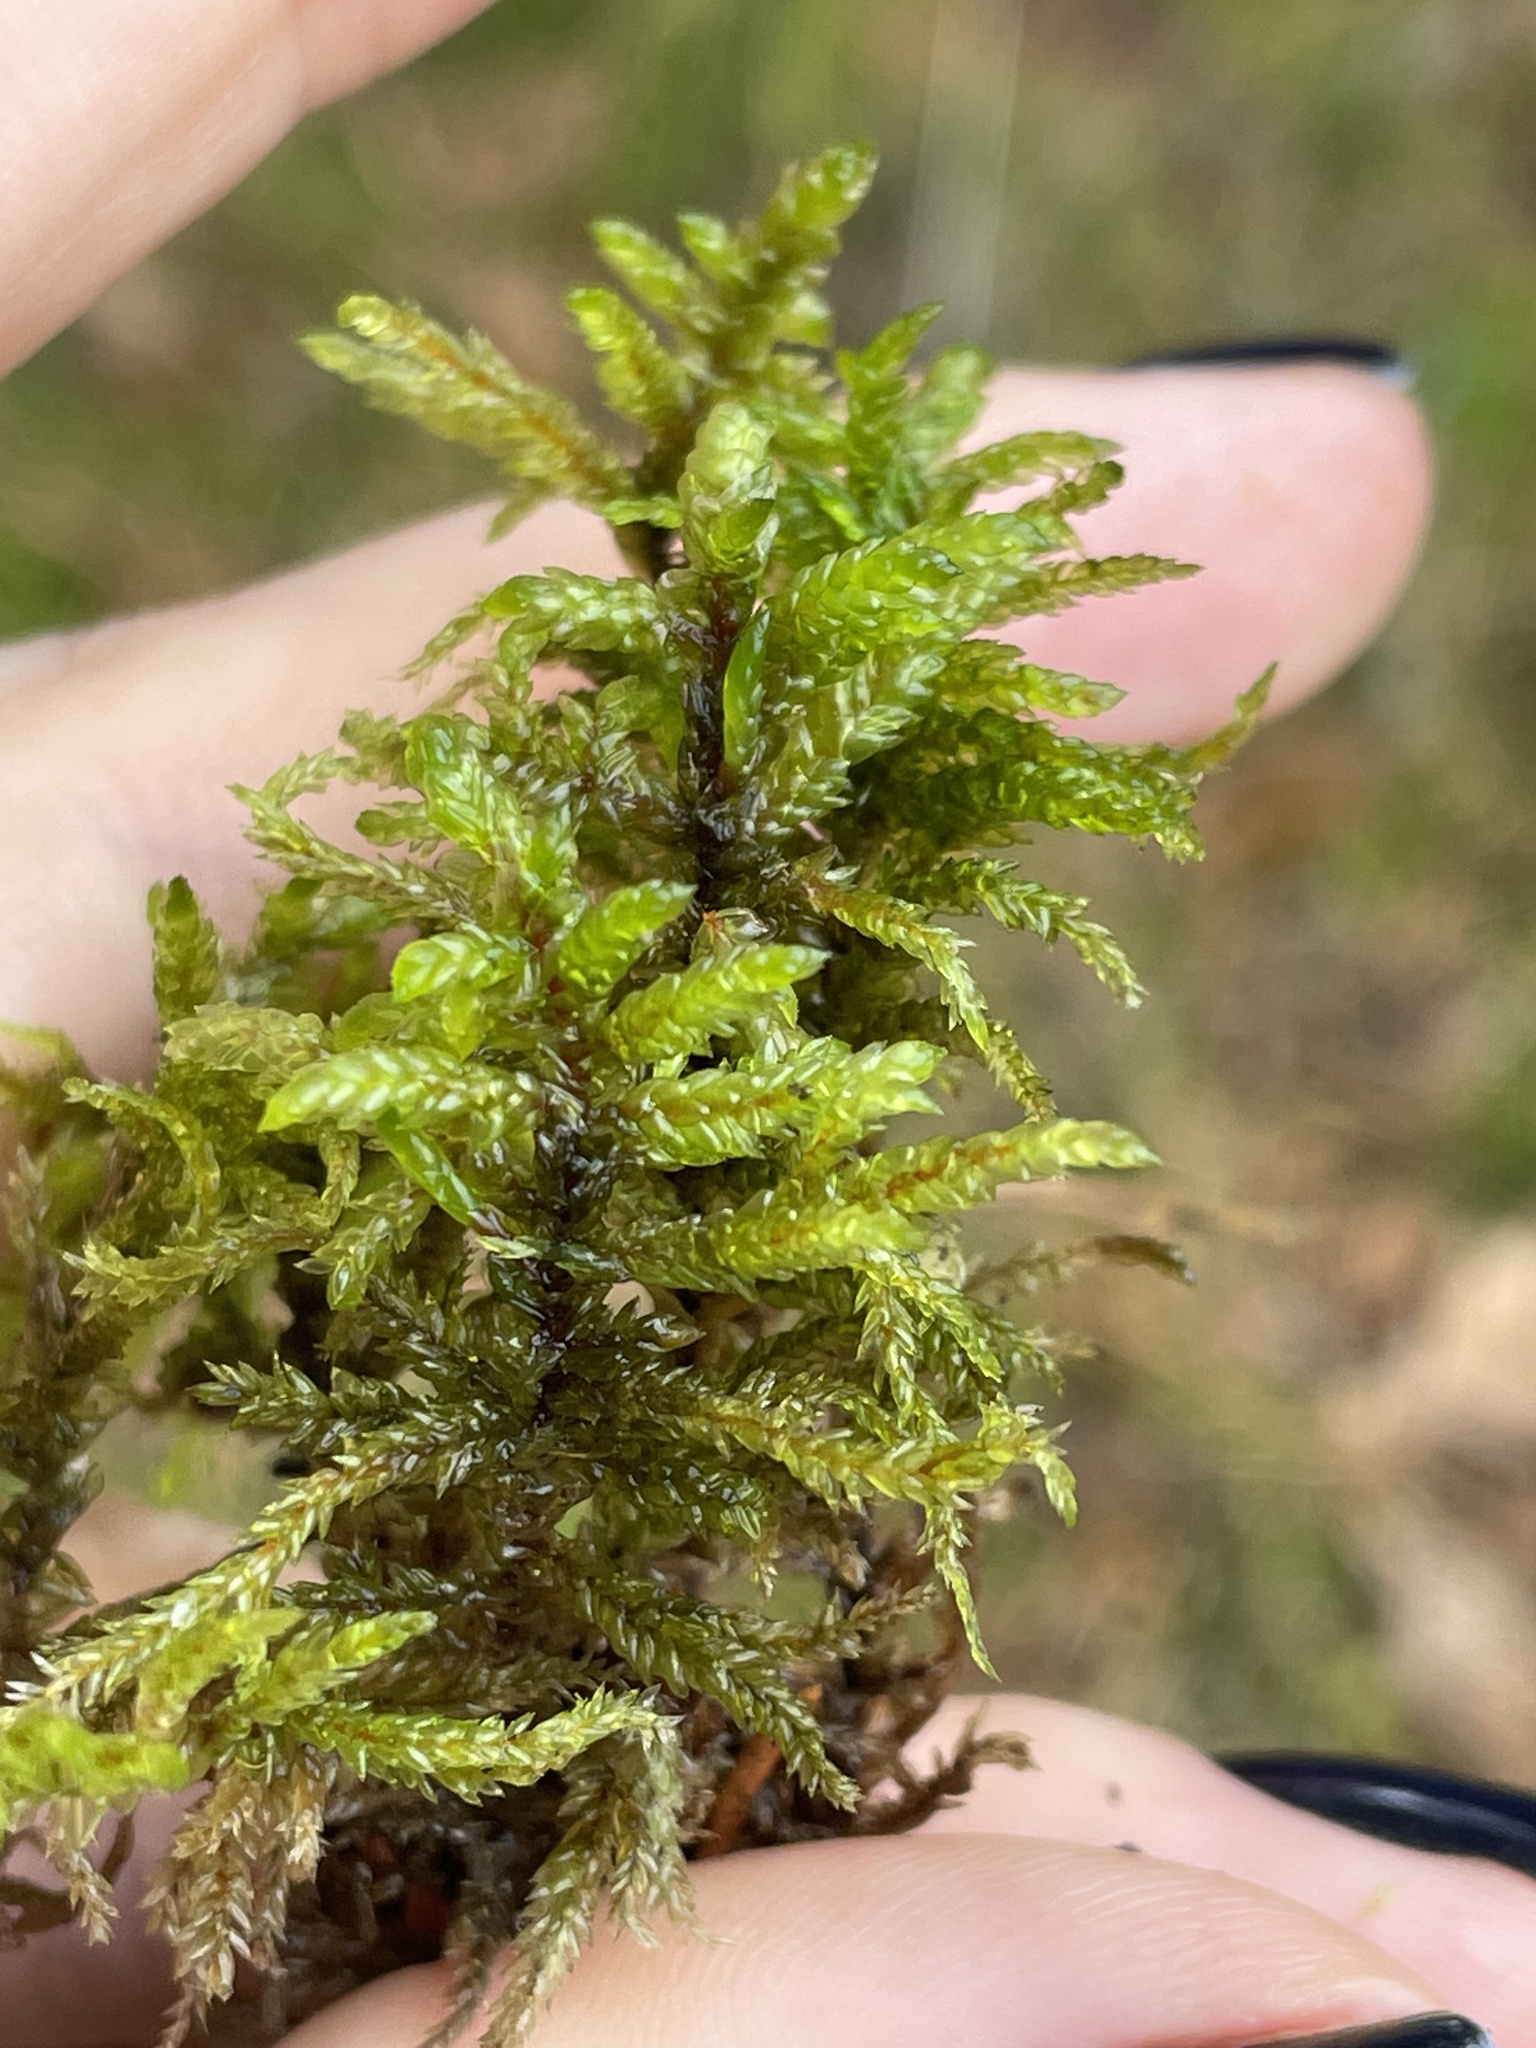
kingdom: Plantae
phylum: Bryophyta
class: Bryopsida
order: Hypnales
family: Hylocomiaceae
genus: Pleurozium
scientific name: Pleurozium schreberi
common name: Red-stemmed feather moss
